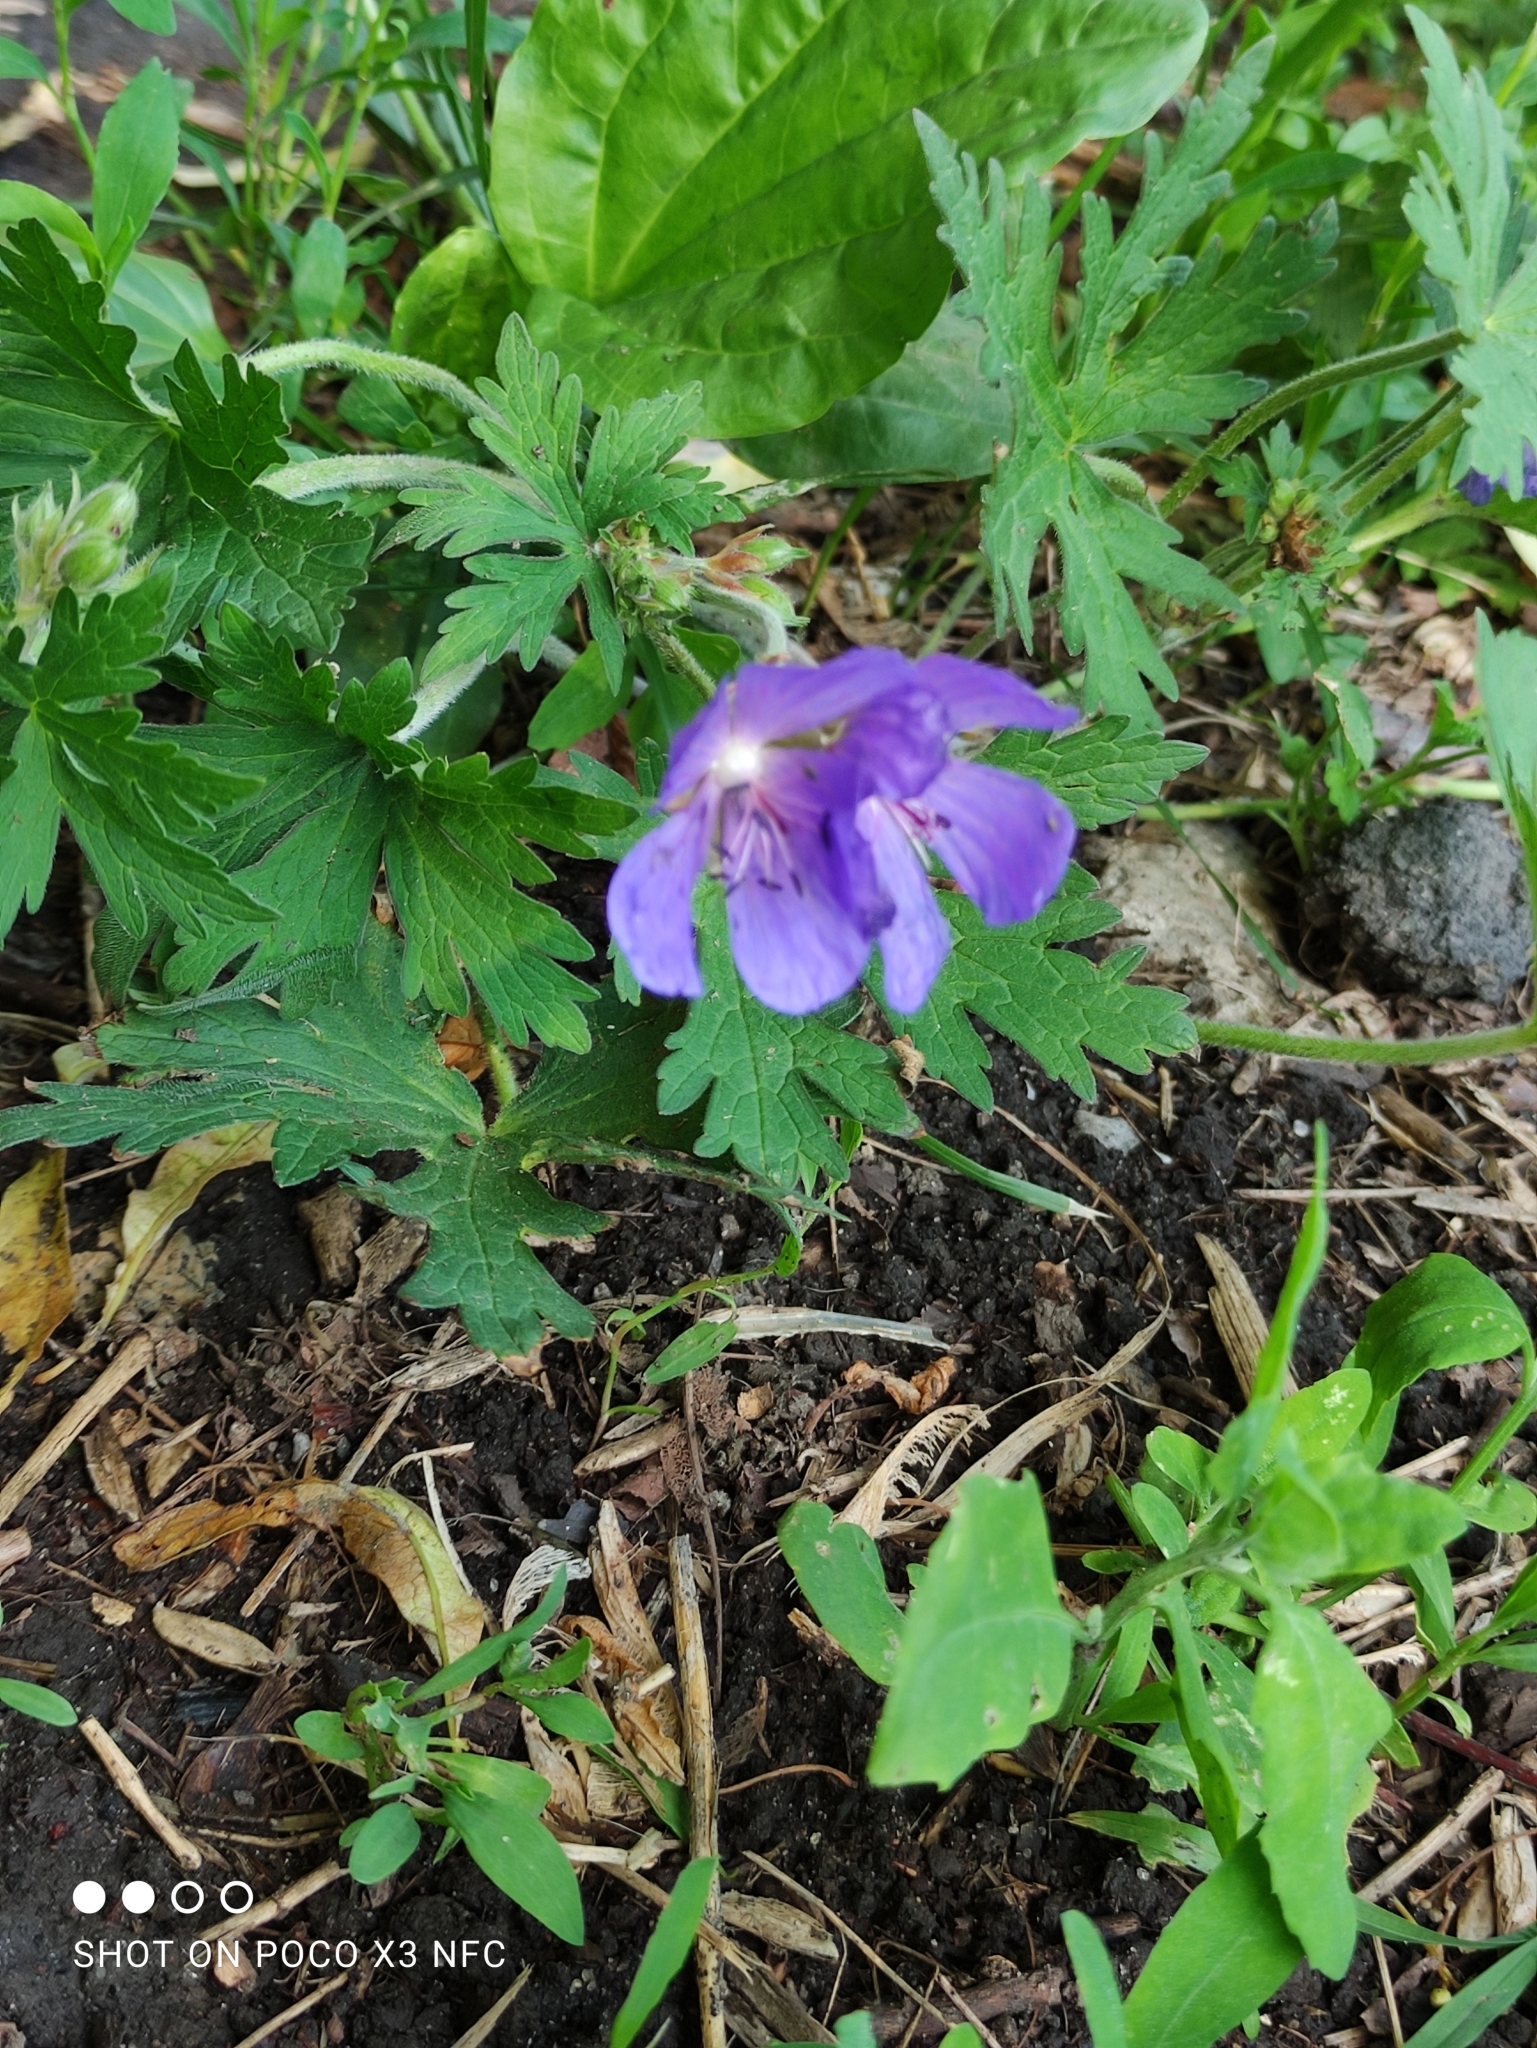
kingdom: Plantae
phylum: Tracheophyta
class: Magnoliopsida
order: Geraniales
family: Geraniaceae
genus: Geranium
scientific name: Geranium pratense
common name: Meadow crane's-bill
